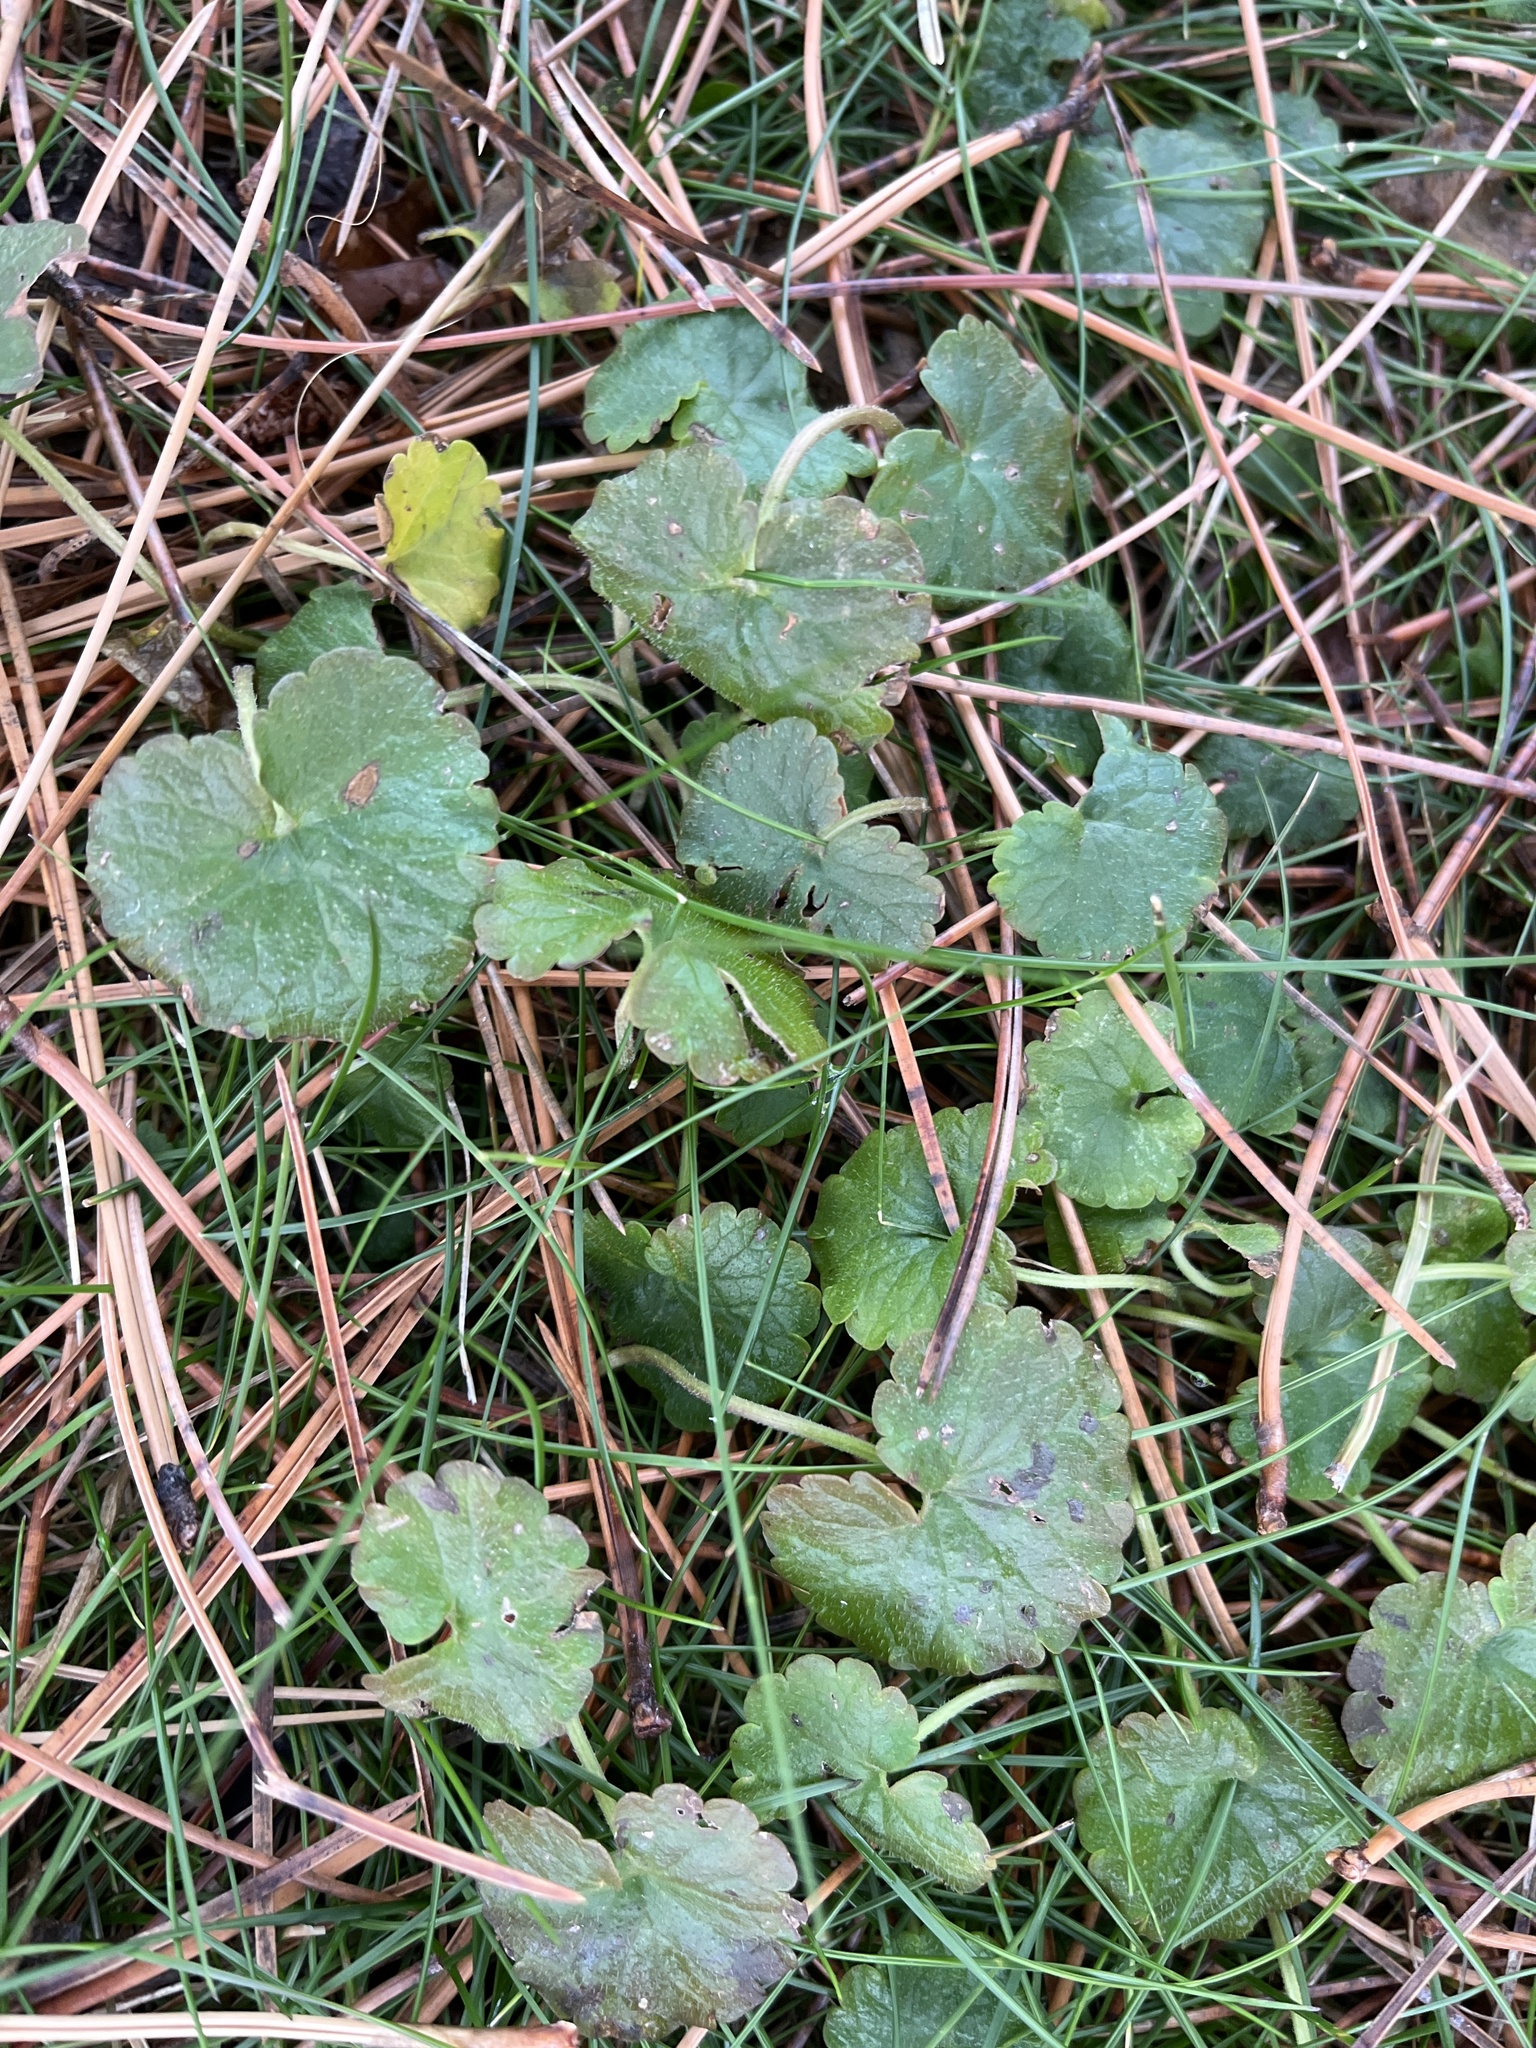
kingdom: Plantae
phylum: Tracheophyta
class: Magnoliopsida
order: Lamiales
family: Lamiaceae
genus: Glechoma
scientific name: Glechoma hederacea
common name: Ground ivy
